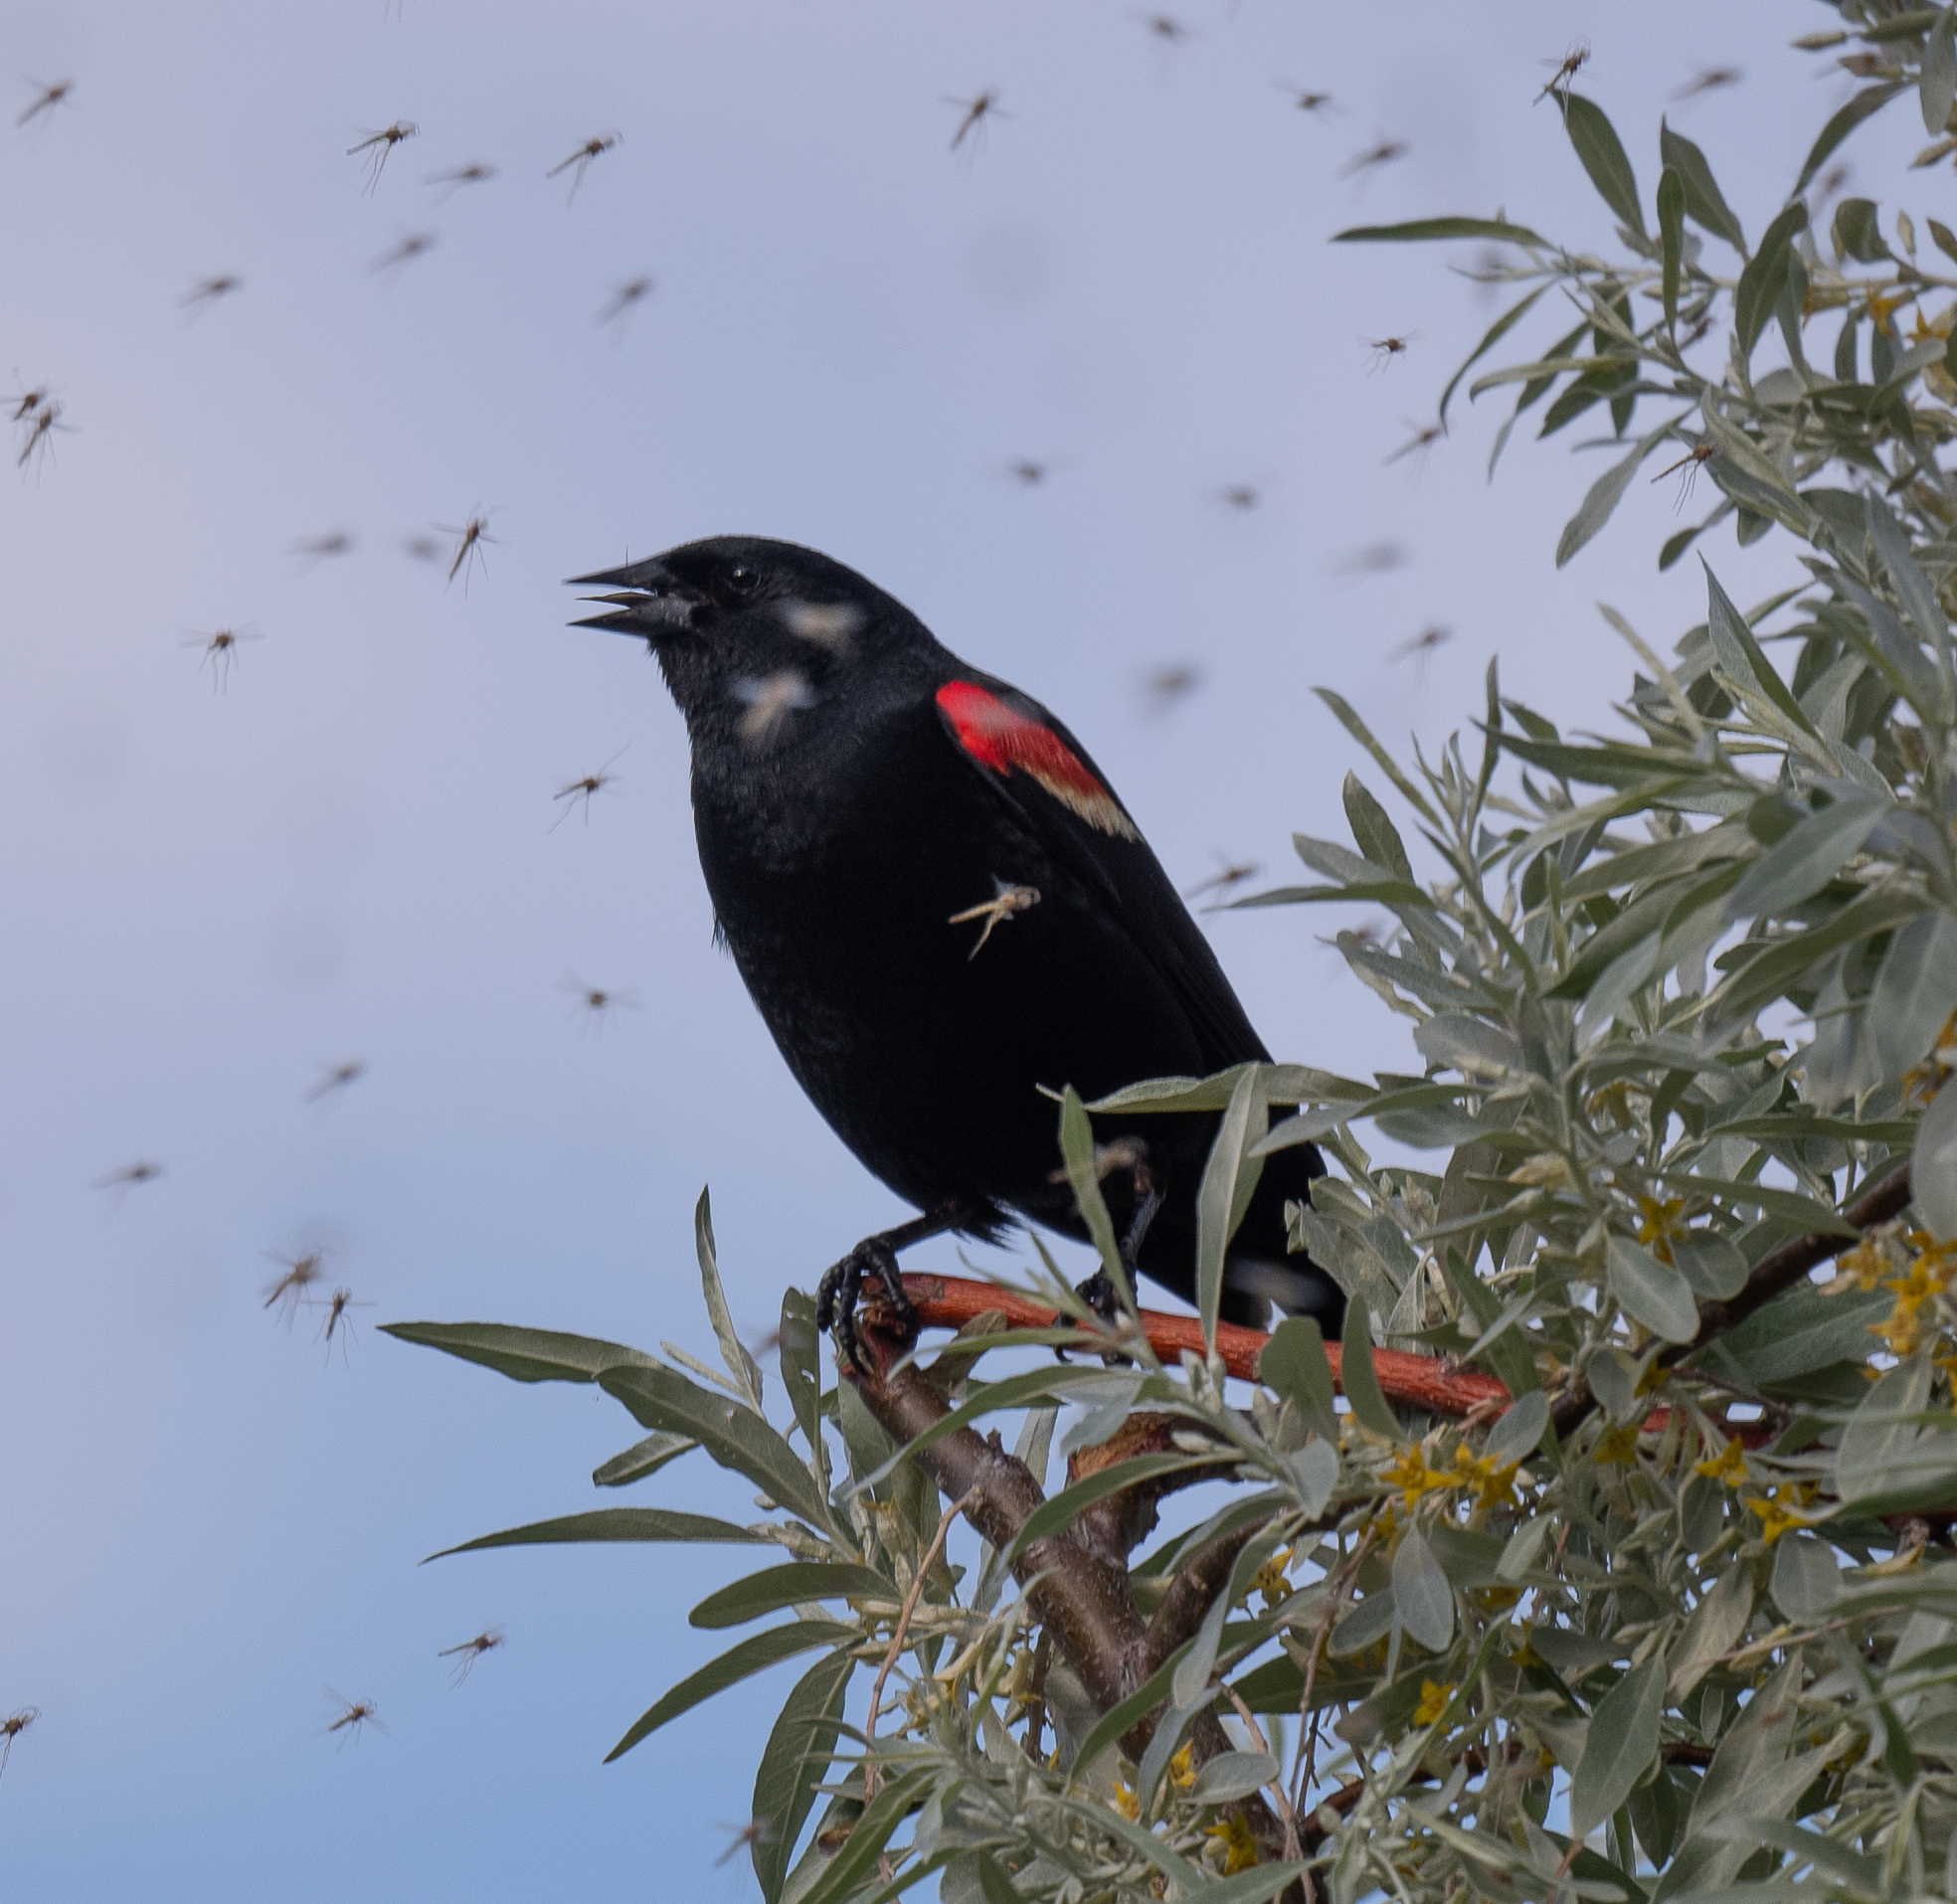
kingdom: Animalia
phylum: Chordata
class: Aves
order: Passeriformes
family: Icteridae
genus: Agelaius
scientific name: Agelaius phoeniceus
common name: Red-winged blackbird
